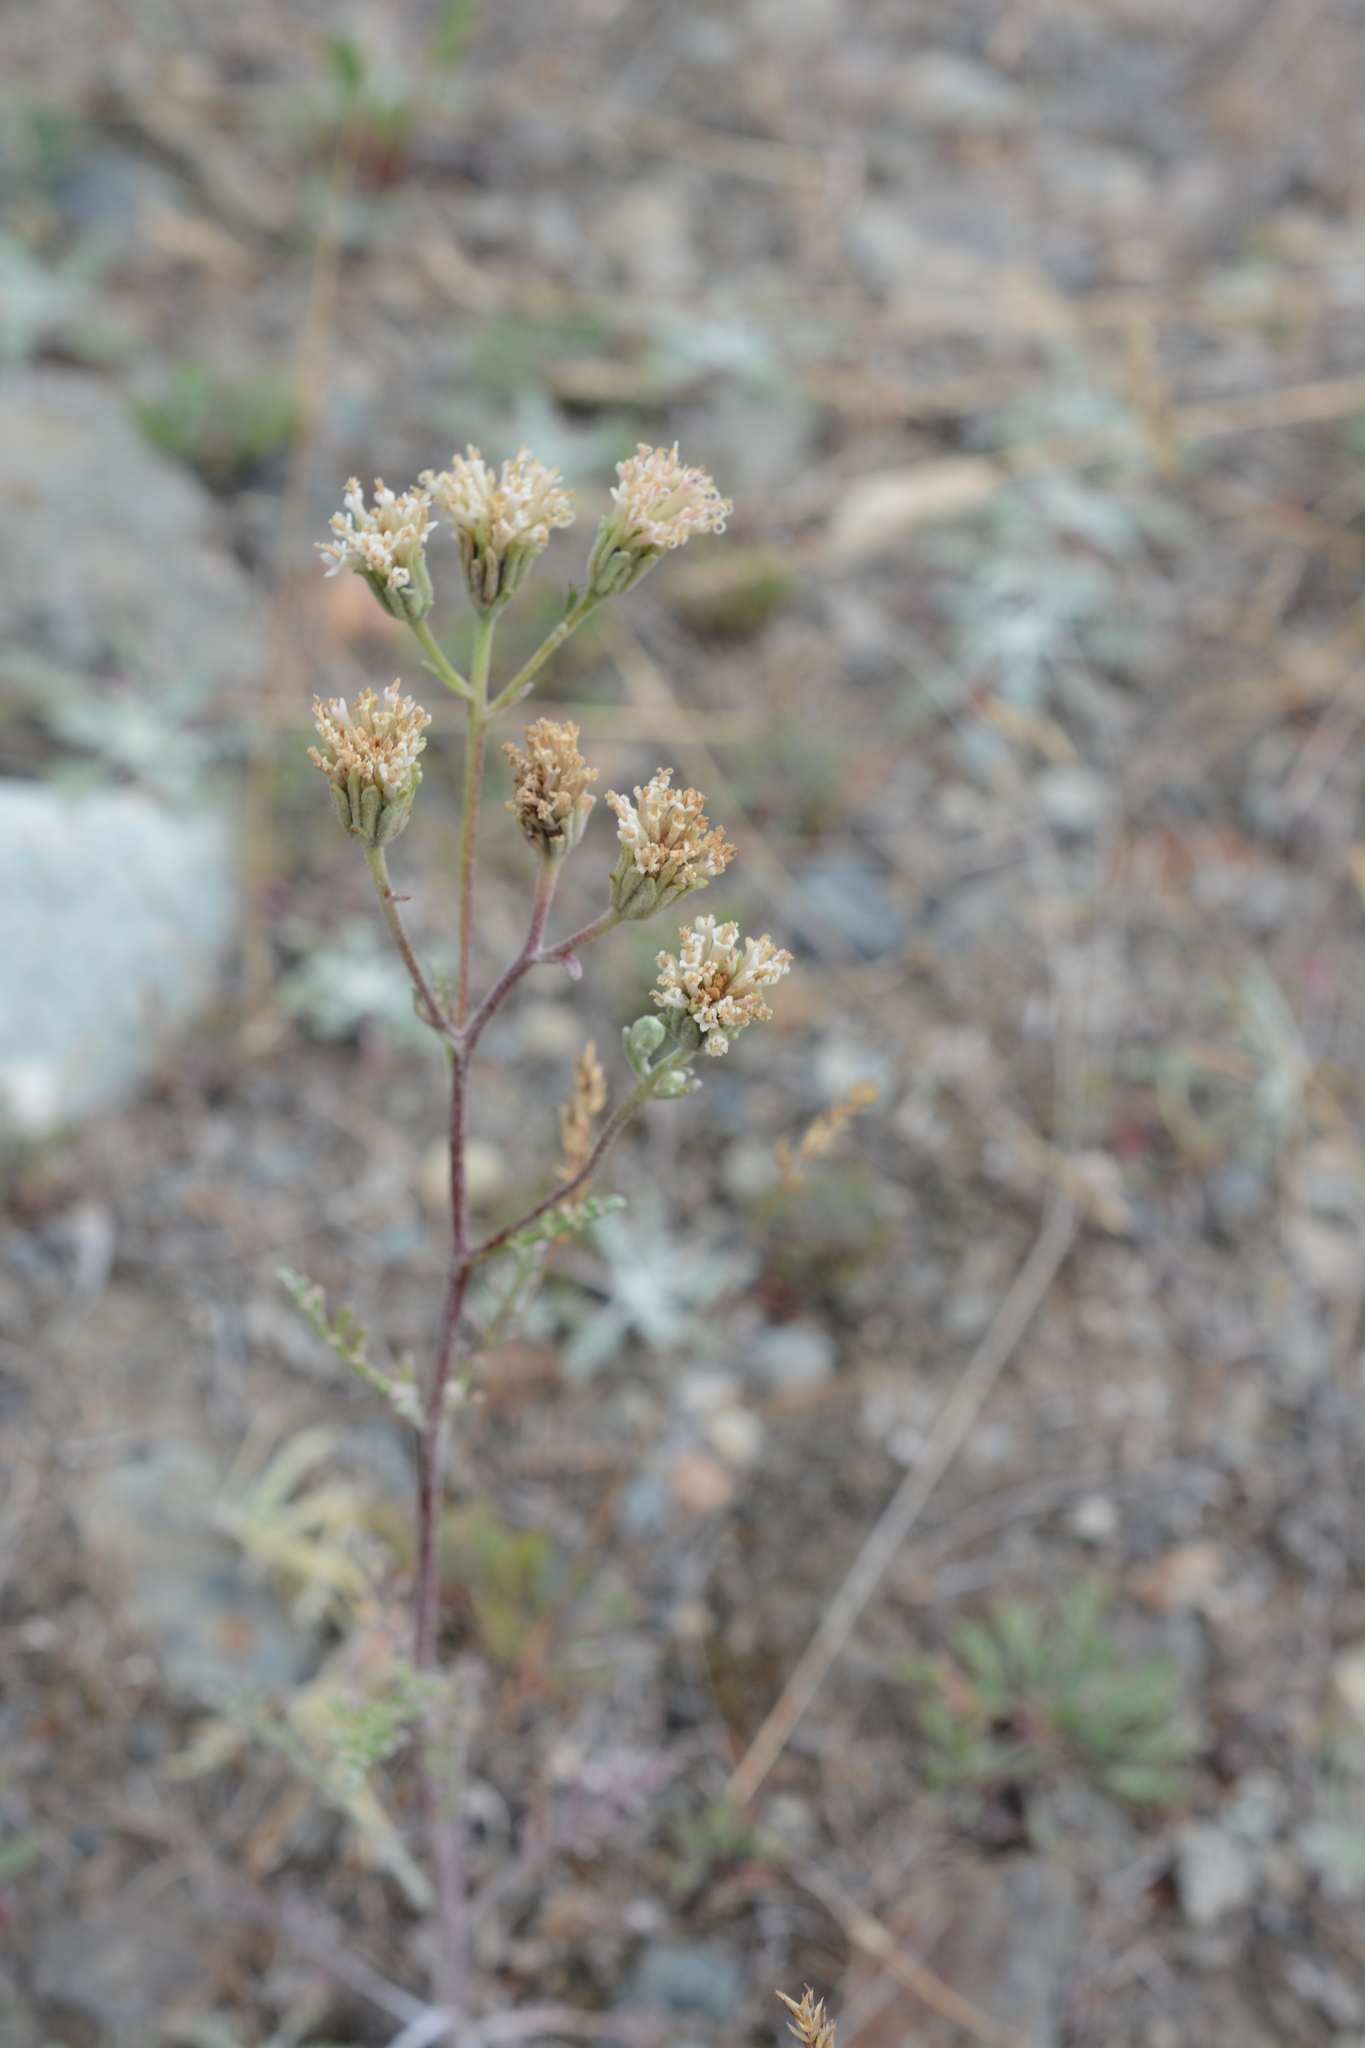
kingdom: Plantae
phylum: Tracheophyta
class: Magnoliopsida
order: Asterales
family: Asteraceae
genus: Chaenactis
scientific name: Chaenactis douglasii
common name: Hoary pincushion
